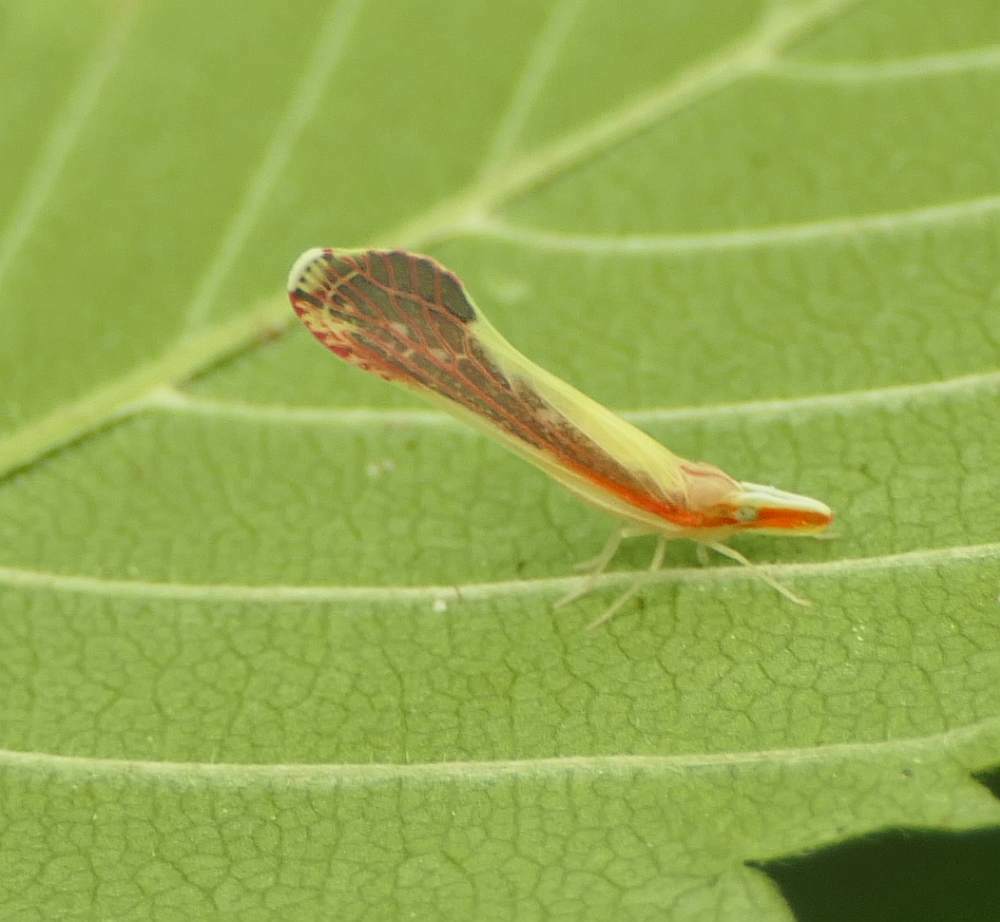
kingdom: Animalia
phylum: Arthropoda
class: Insecta
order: Hemiptera
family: Derbidae
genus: Shellenius
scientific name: Shellenius ballii
